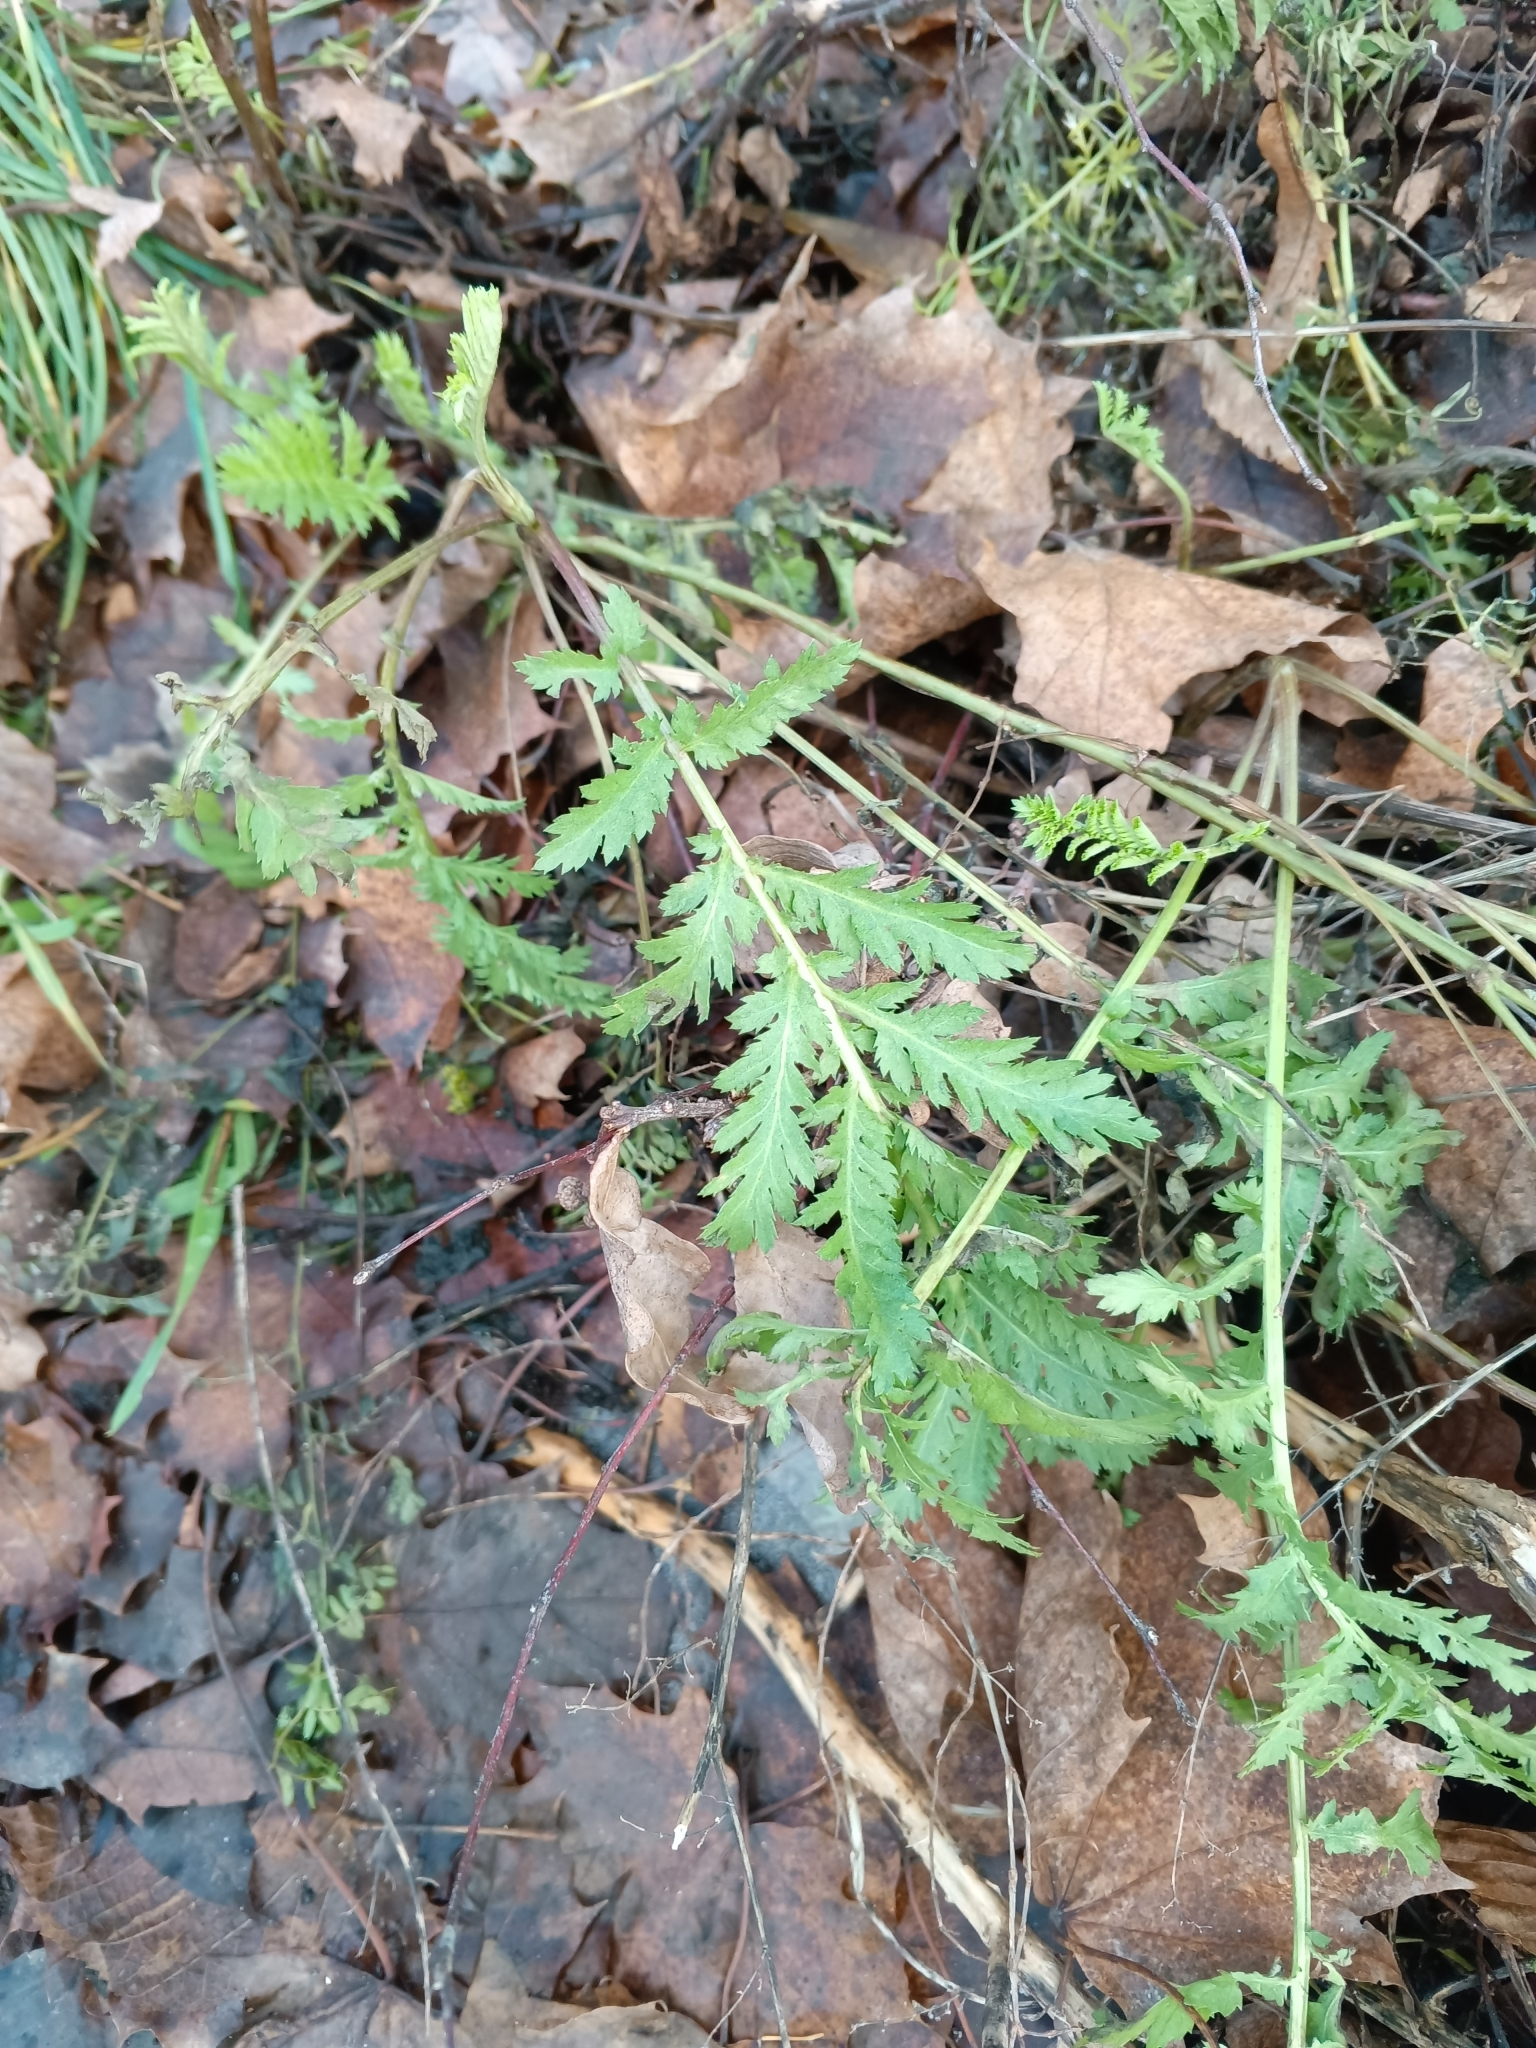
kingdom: Plantae
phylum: Tracheophyta
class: Magnoliopsida
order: Asterales
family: Asteraceae
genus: Tanacetum
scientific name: Tanacetum vulgare
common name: Common tansy
